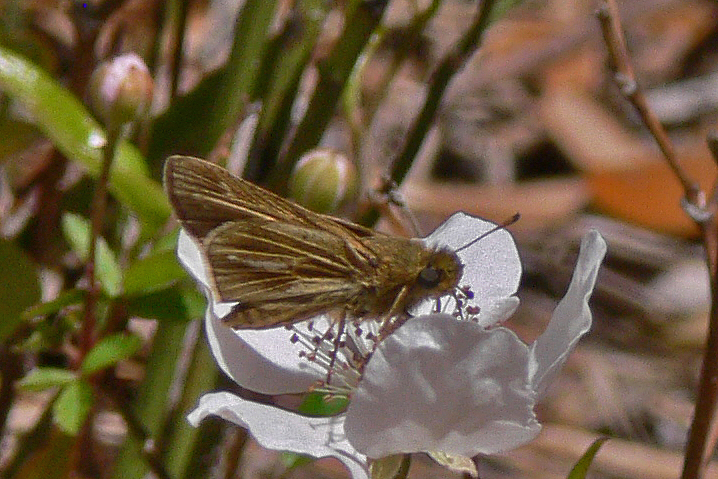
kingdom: Animalia
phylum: Arthropoda
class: Insecta
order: Lepidoptera
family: Hesperiidae
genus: Panoquina
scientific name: Panoquina panoquin
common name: Salt marsh skipper
